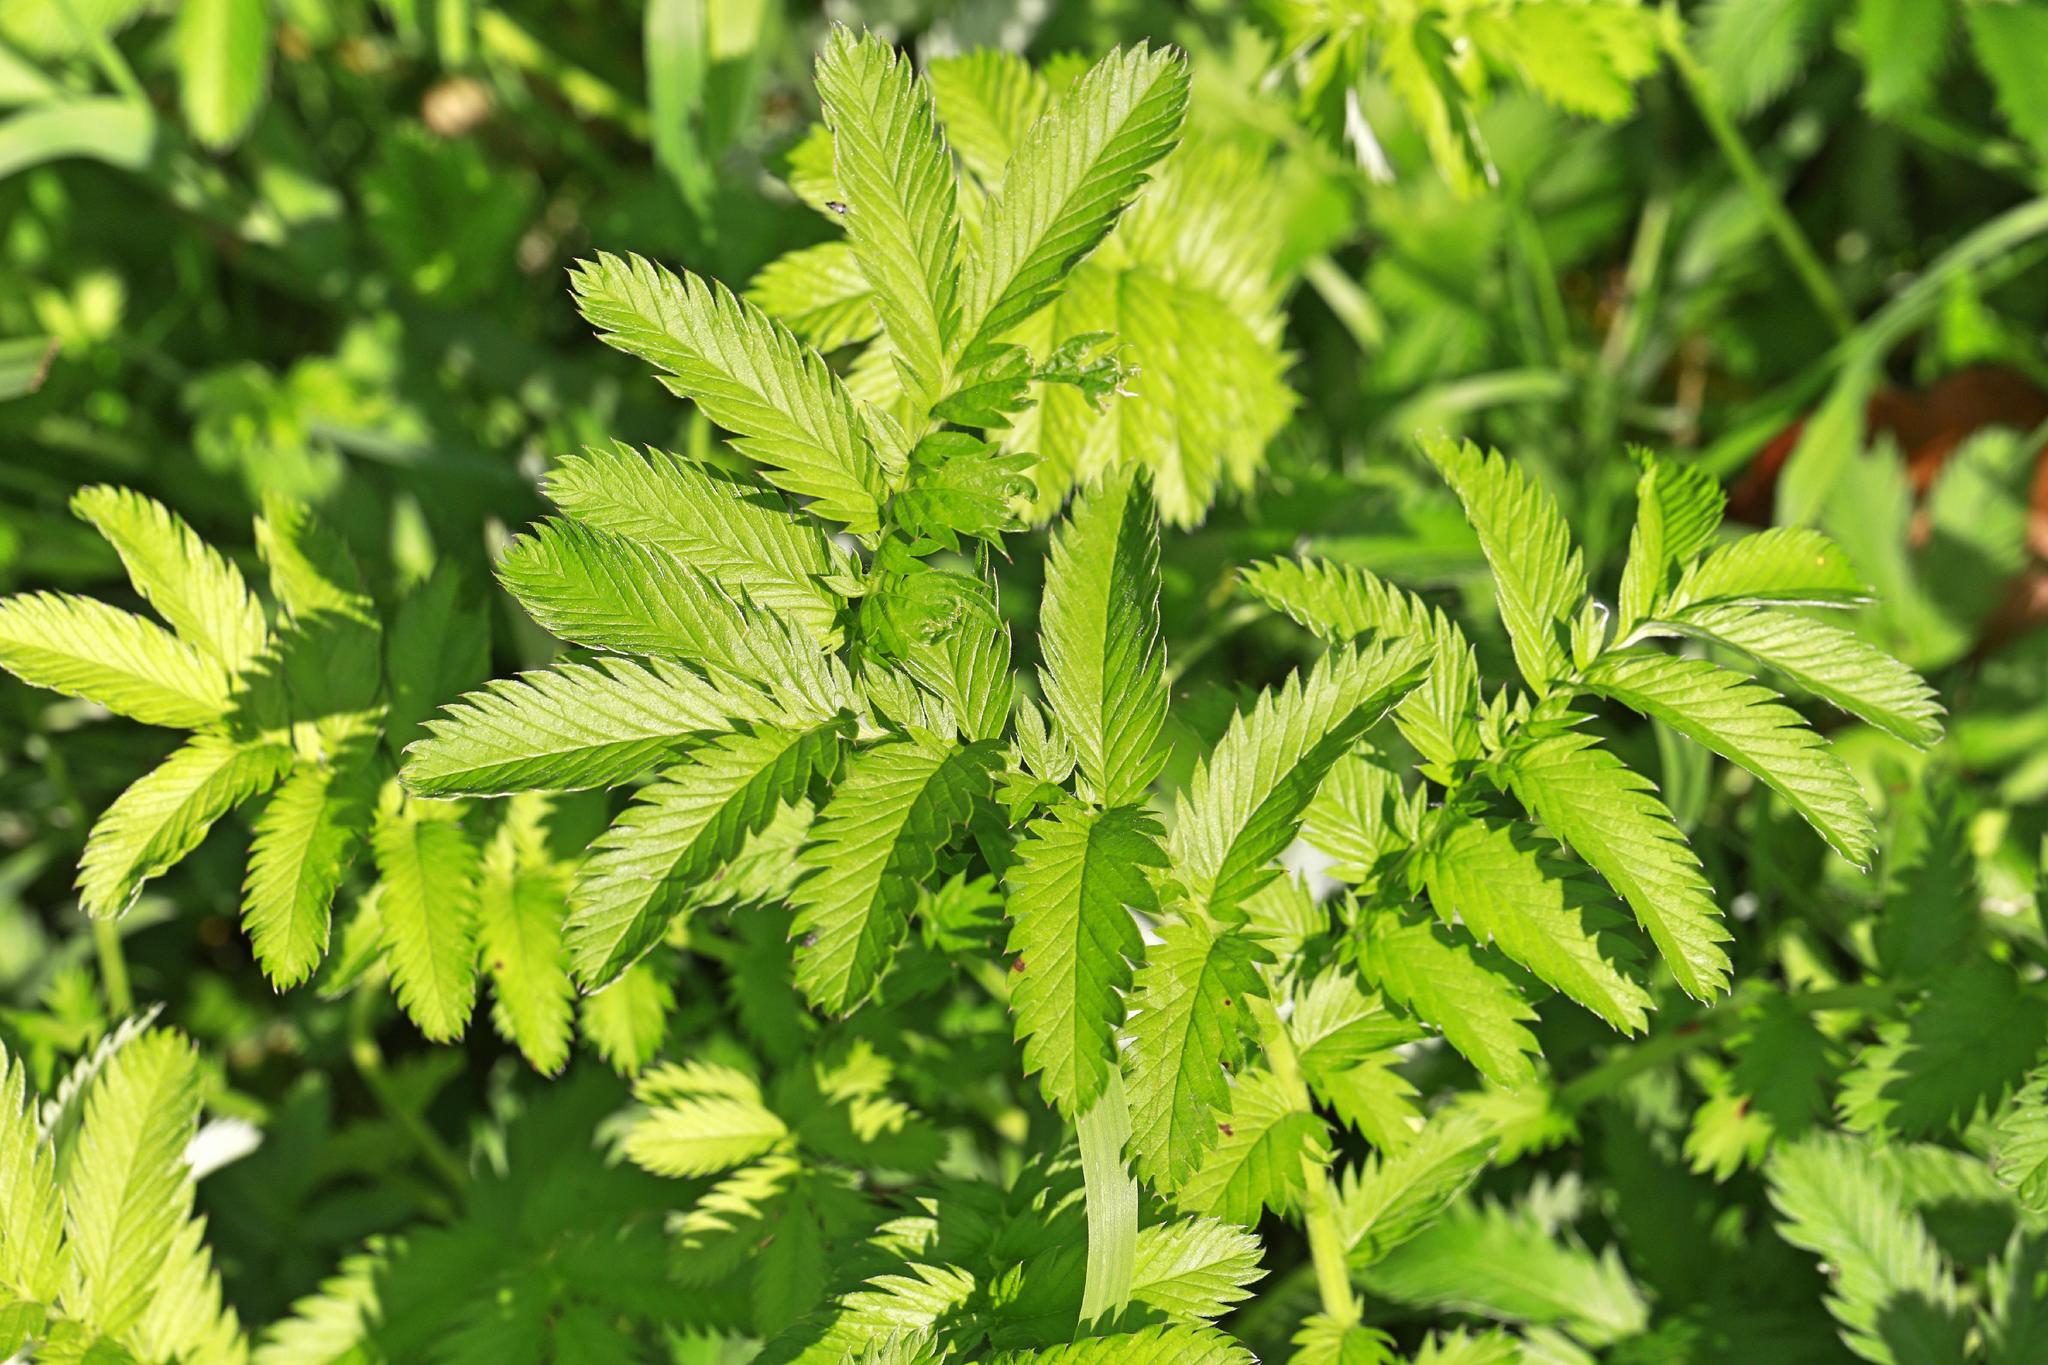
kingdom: Plantae
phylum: Tracheophyta
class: Magnoliopsida
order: Rosales
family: Rosaceae
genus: Argentina
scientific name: Argentina anserina
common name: Common silverweed
